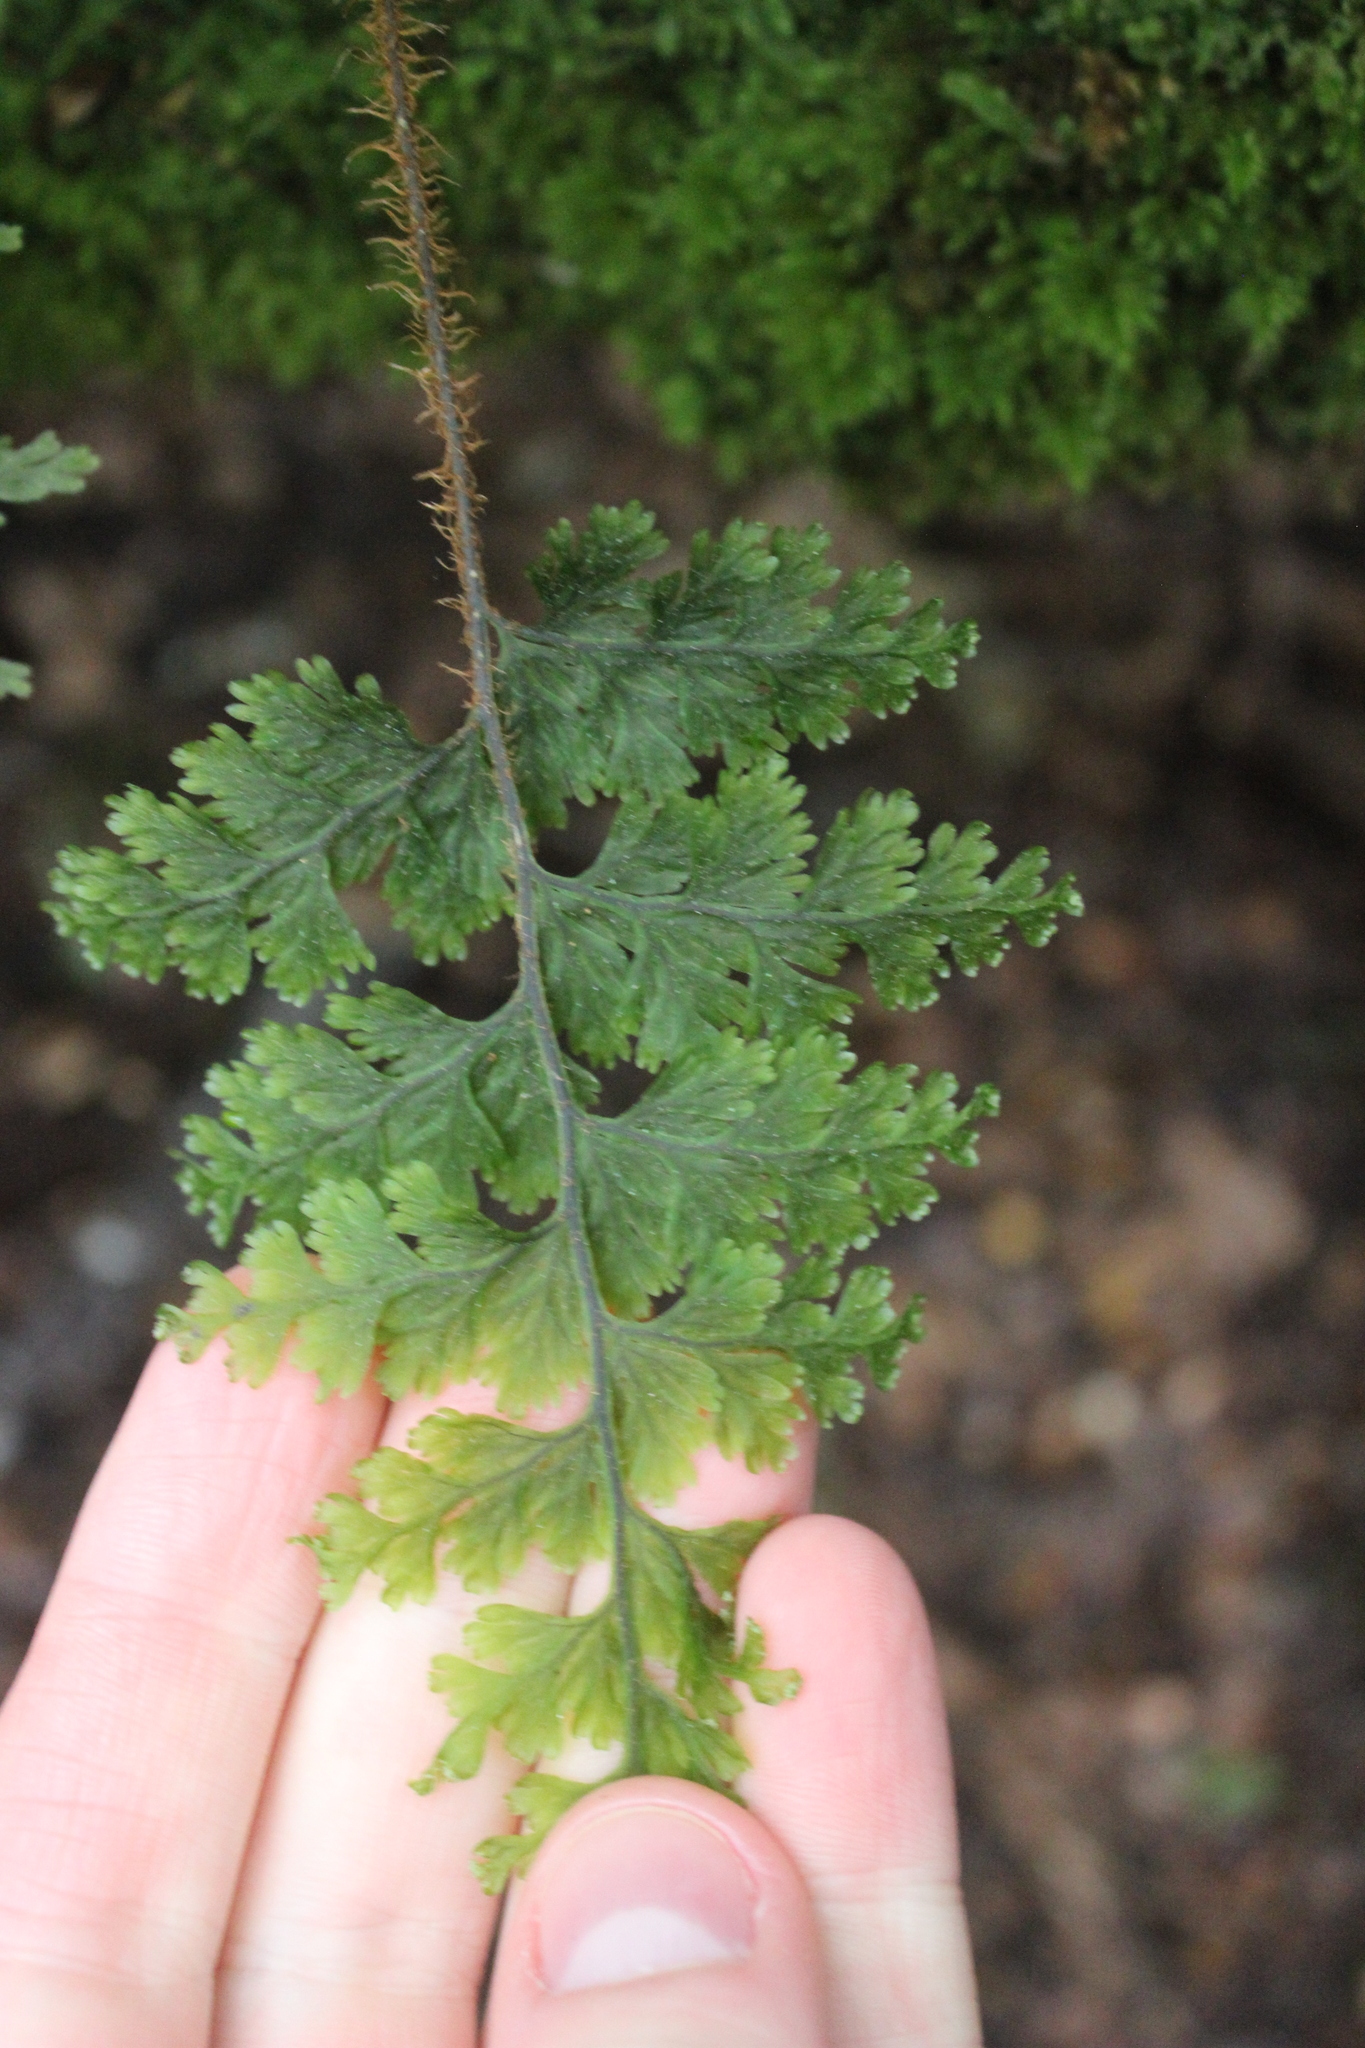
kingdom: Plantae
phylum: Tracheophyta
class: Polypodiopsida
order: Hymenophyllales
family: Hymenophyllaceae
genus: Hymenophyllum
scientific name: Hymenophyllum scabrum
